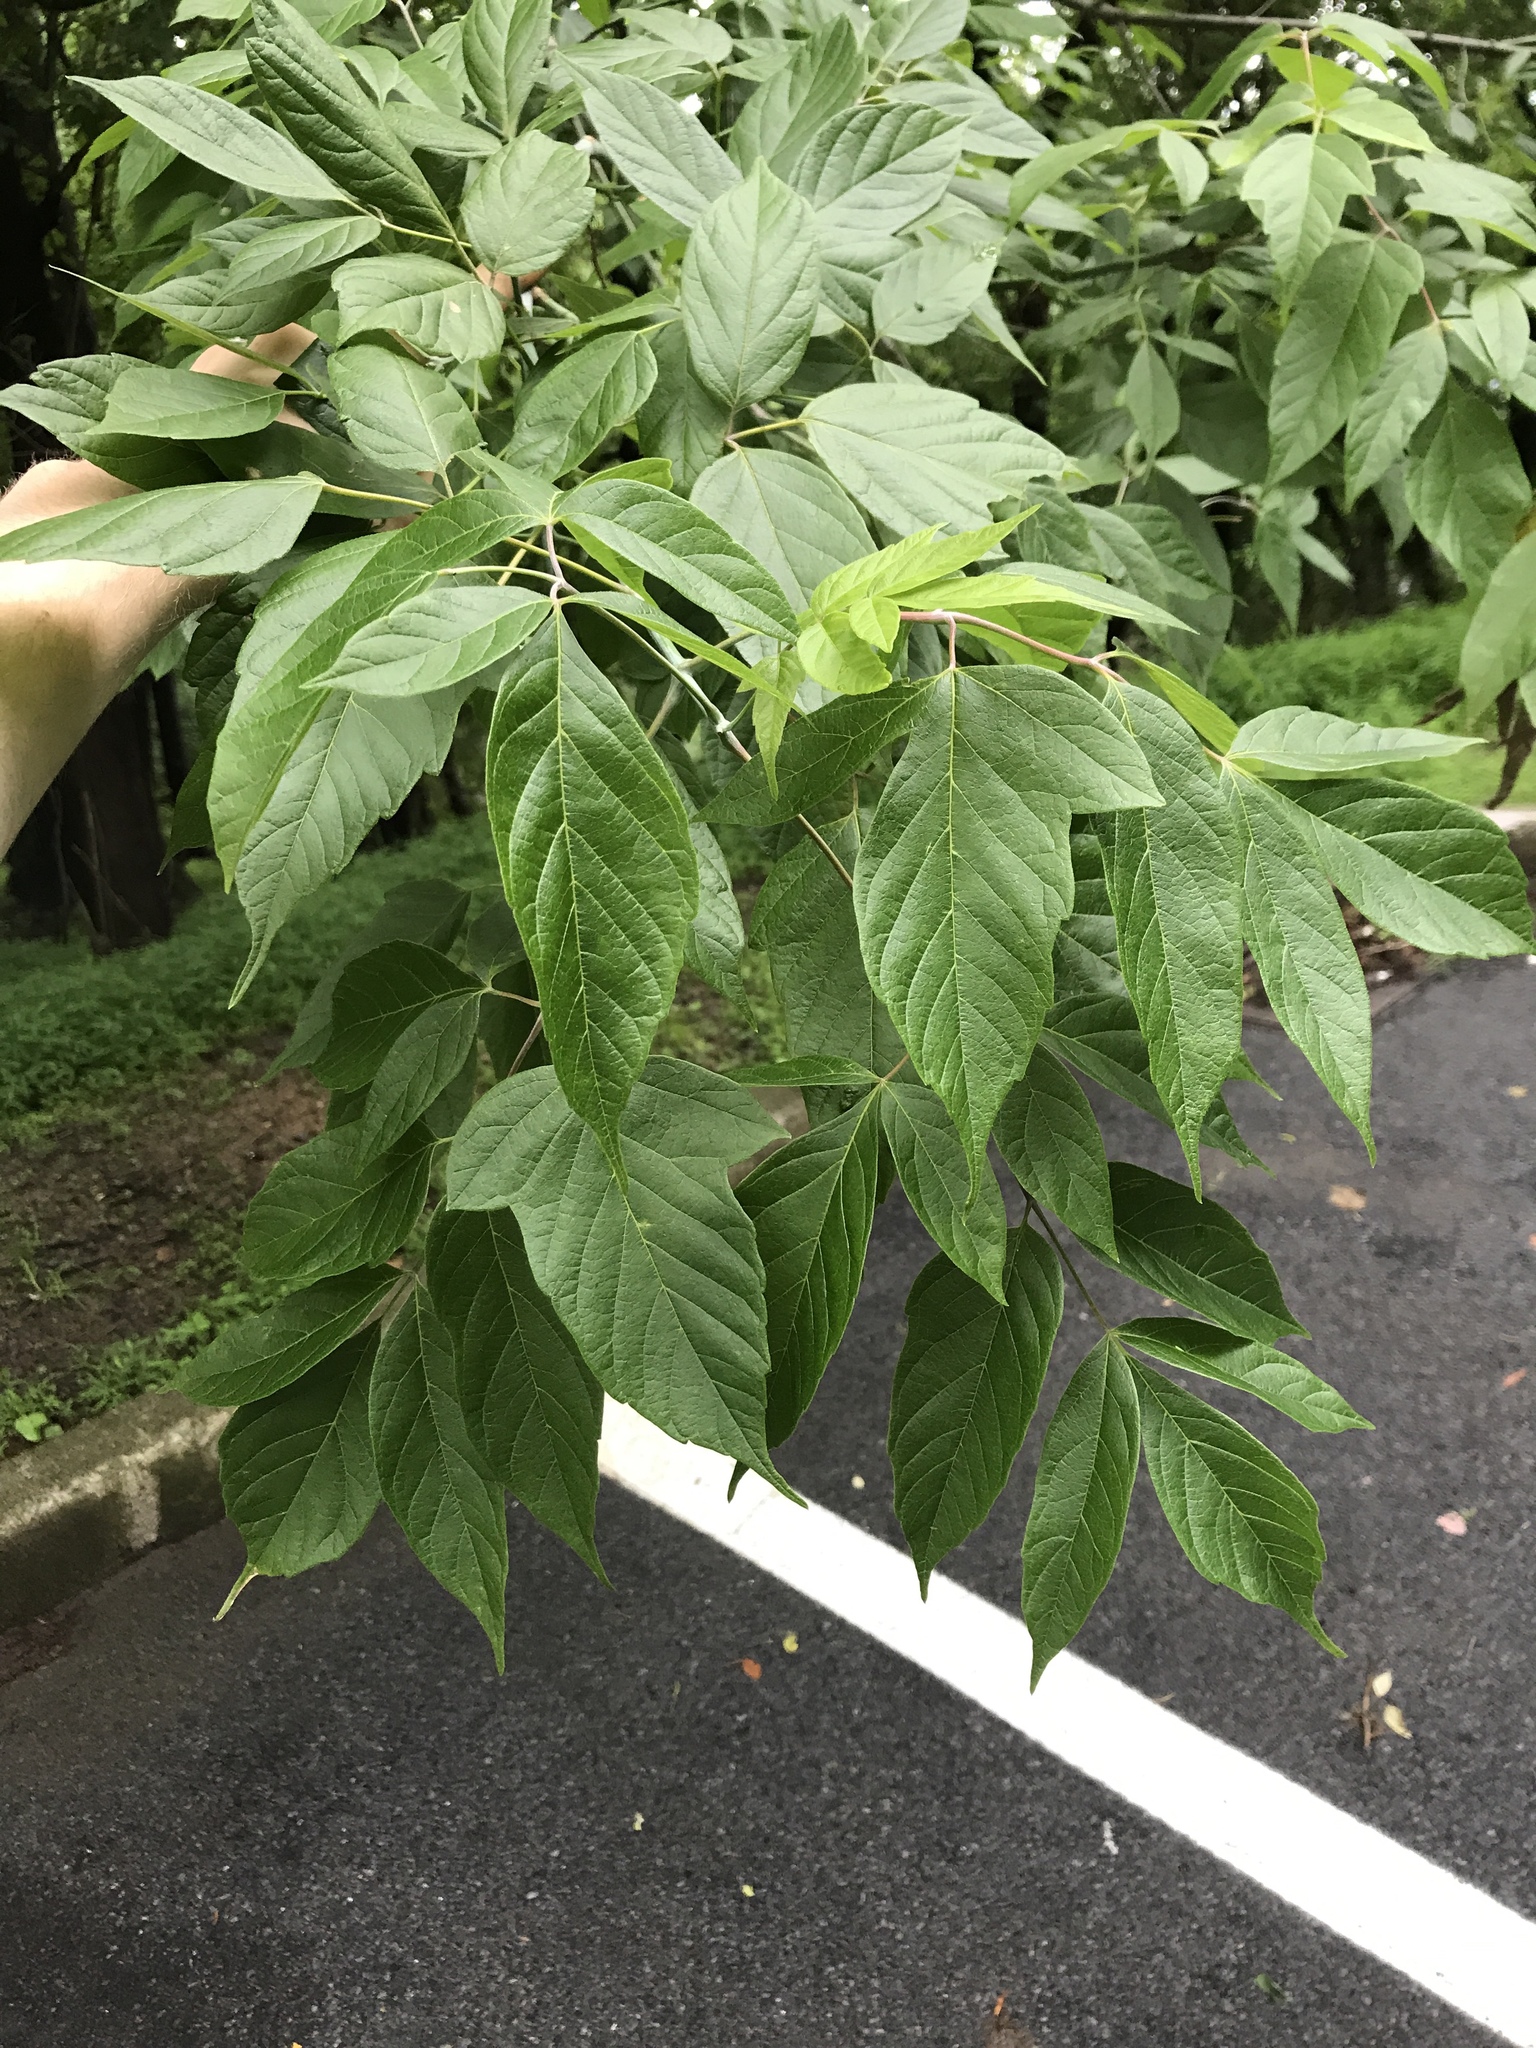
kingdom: Plantae
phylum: Tracheophyta
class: Magnoliopsida
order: Sapindales
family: Sapindaceae
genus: Acer
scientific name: Acer negundo
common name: Ashleaf maple
